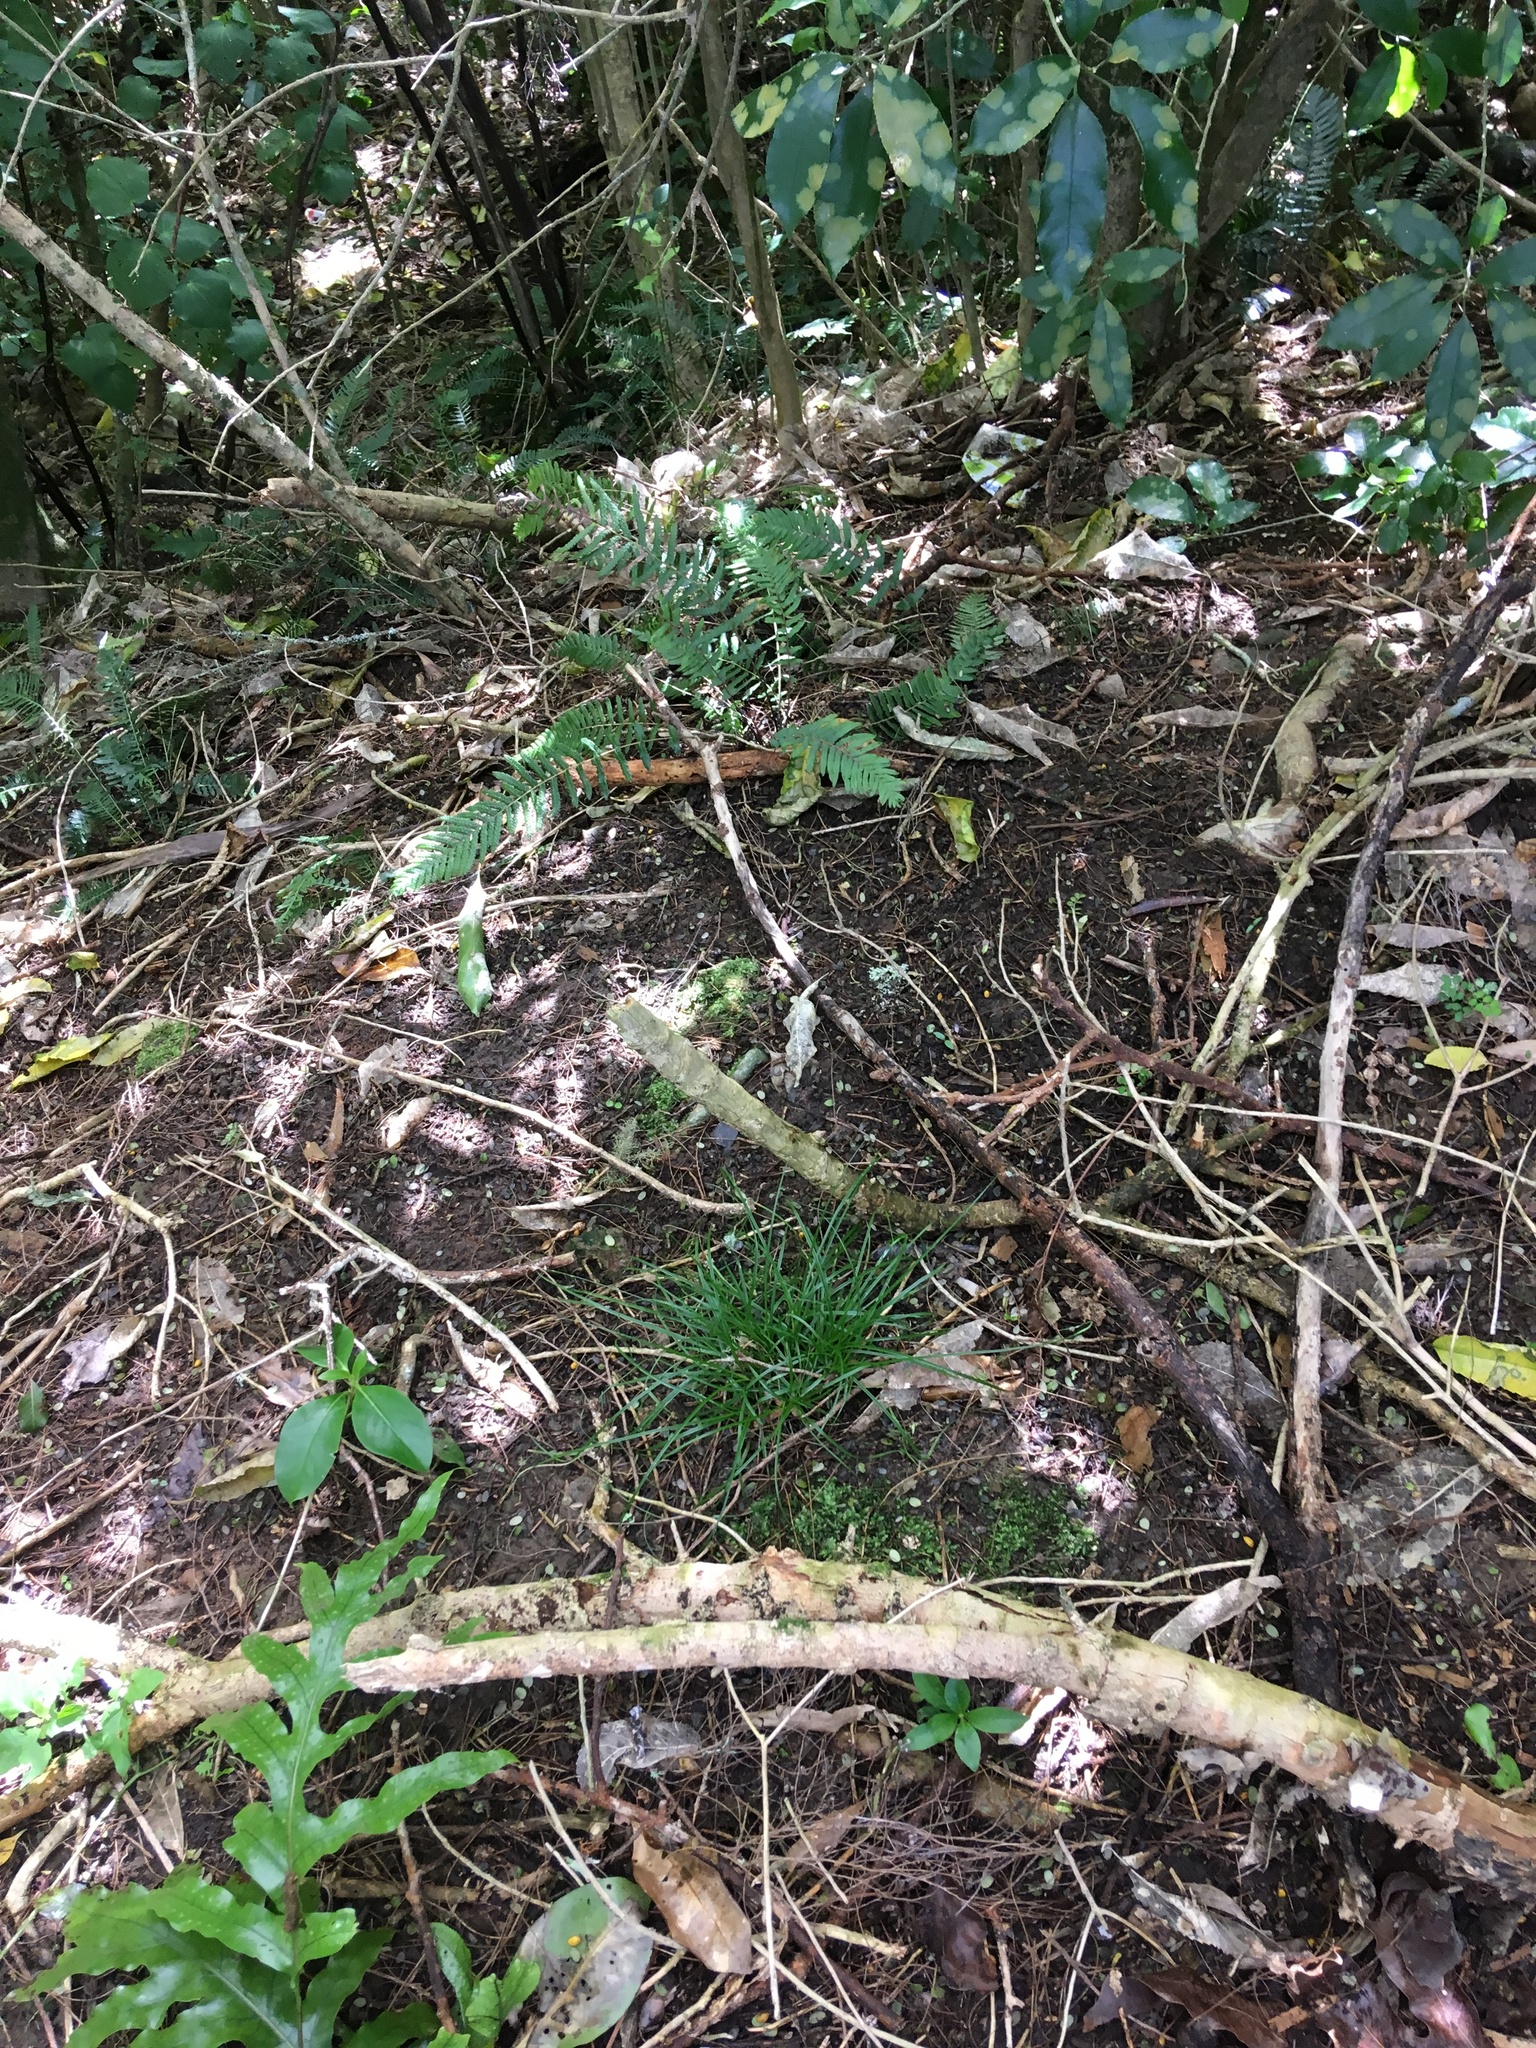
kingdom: Plantae
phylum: Tracheophyta
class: Polypodiopsida
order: Polypodiales
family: Blechnaceae
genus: Doodia
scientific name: Doodia australis
